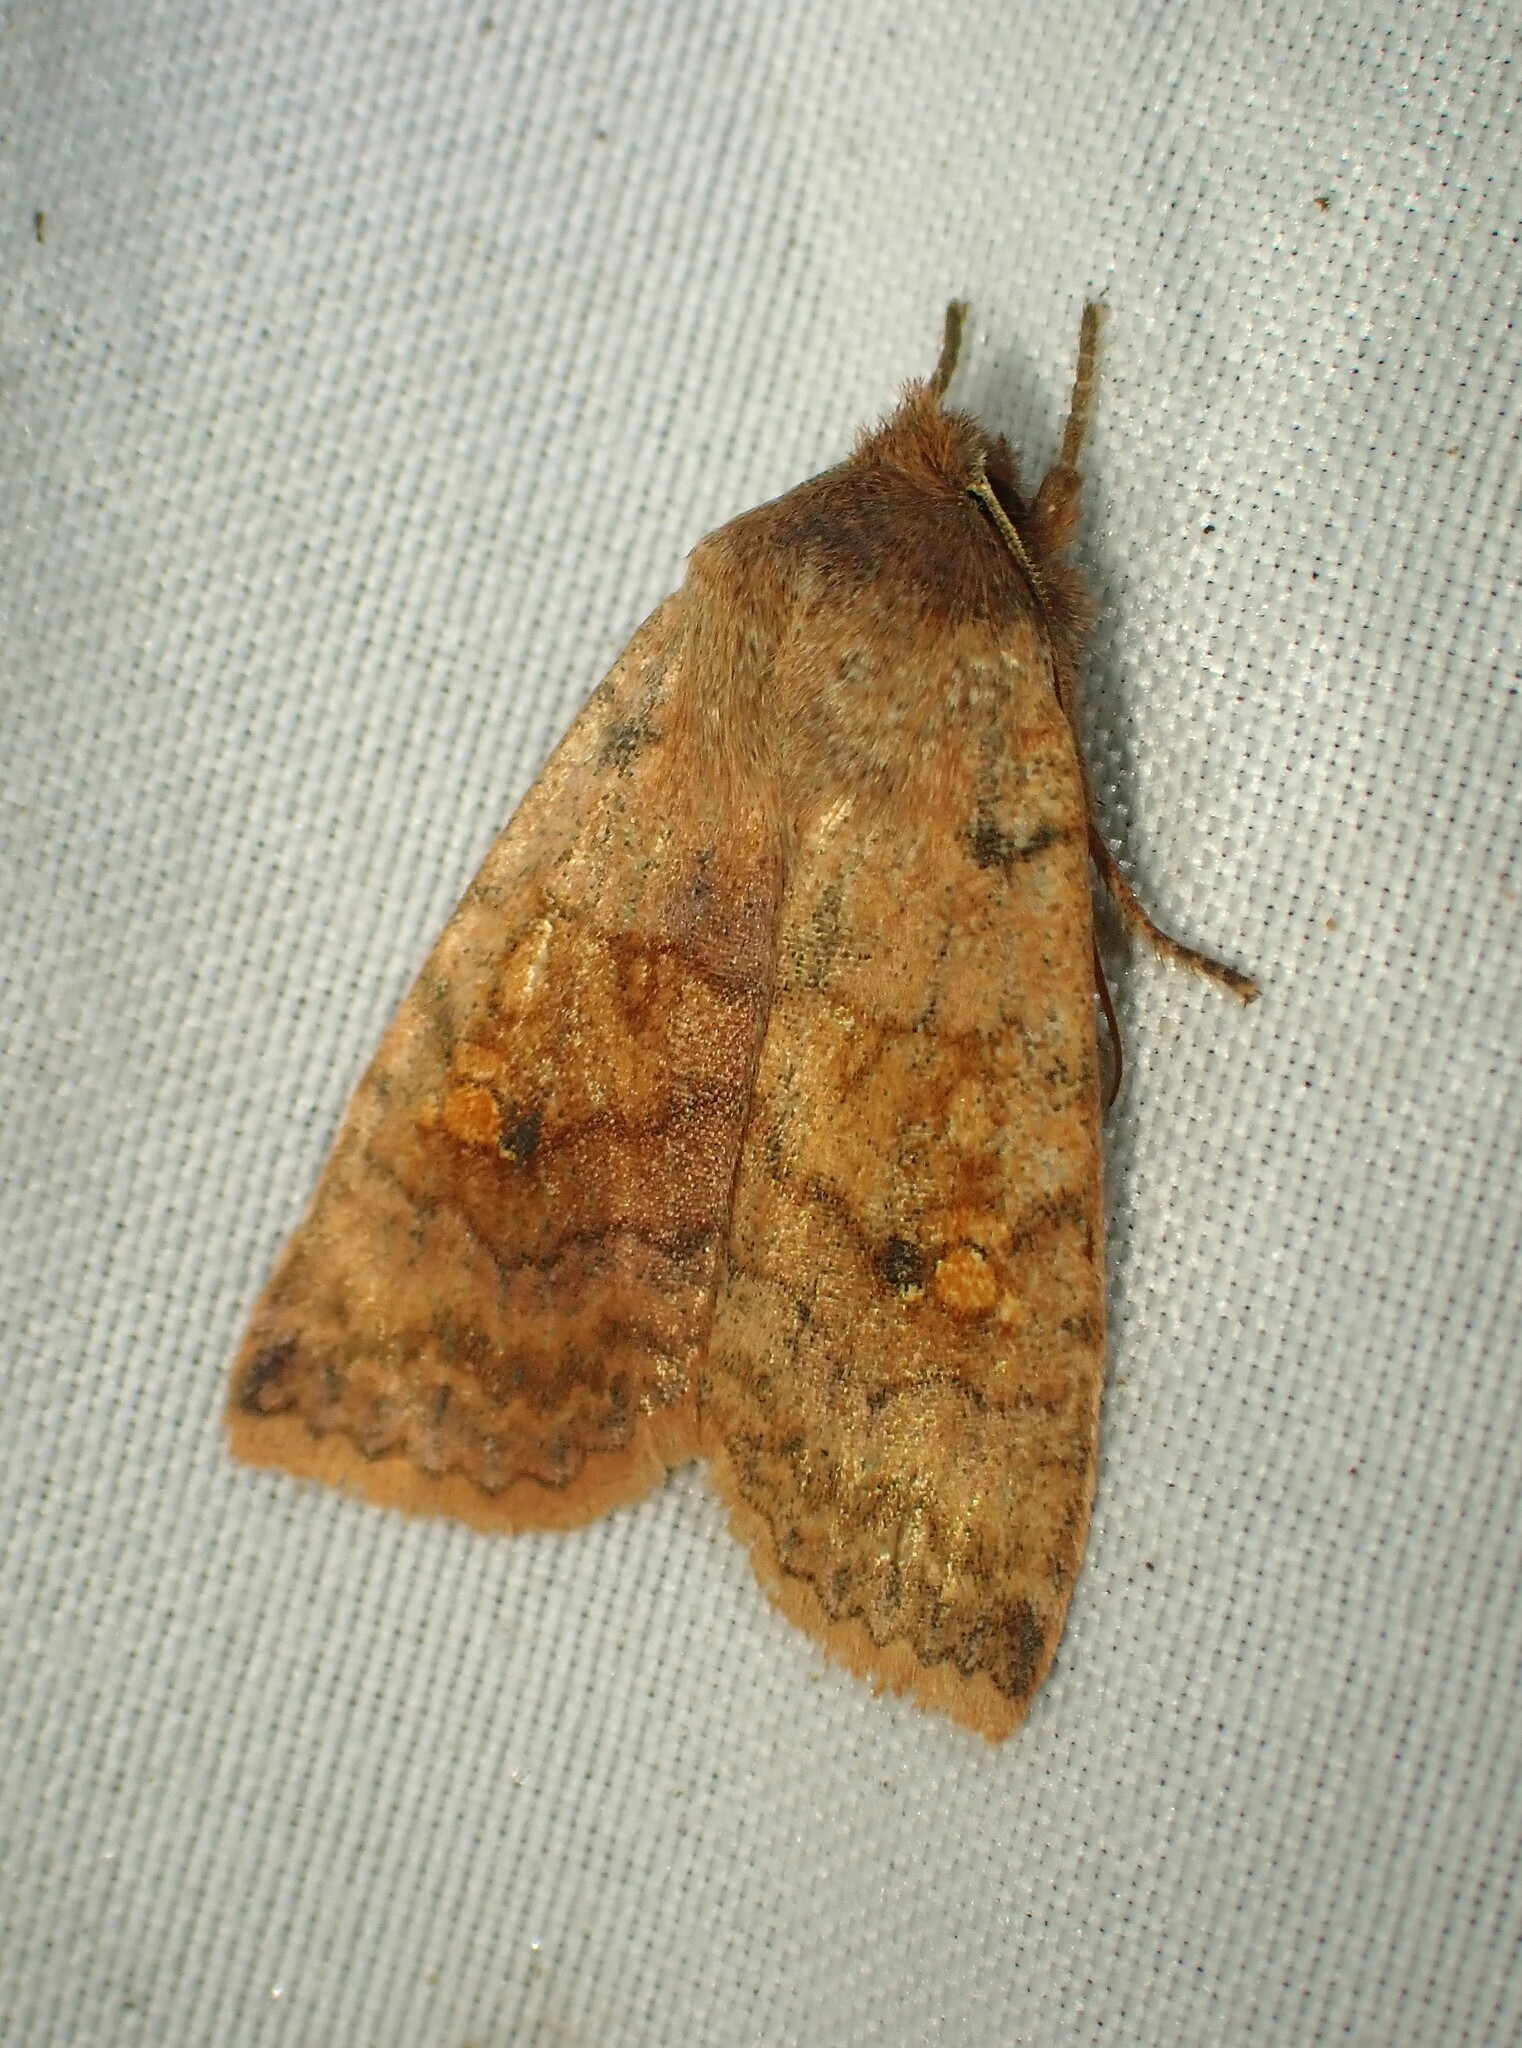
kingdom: Animalia
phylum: Arthropoda
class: Insecta
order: Lepidoptera
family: Noctuidae
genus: Eupsilia
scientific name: Eupsilia tristigmata
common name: Three-spotted sallow
